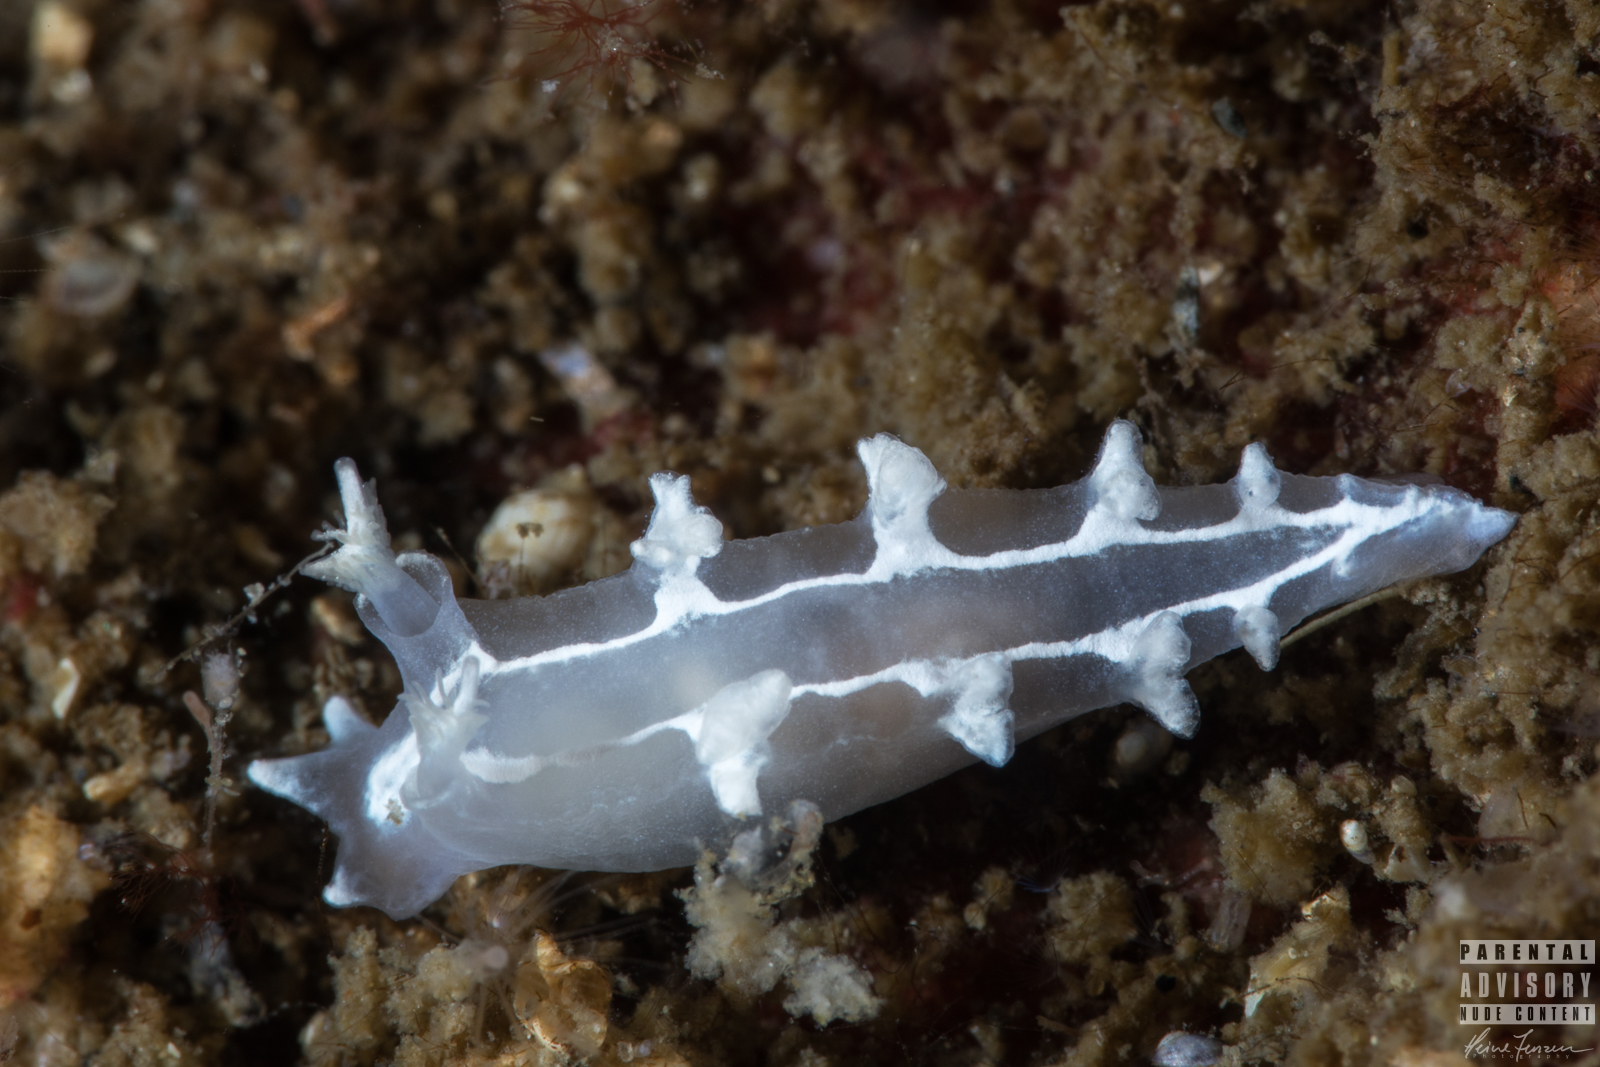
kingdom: Animalia
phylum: Mollusca
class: Gastropoda
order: Nudibranchia
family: Tritoniidae
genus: Duvaucelia
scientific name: Duvaucelia lineata
